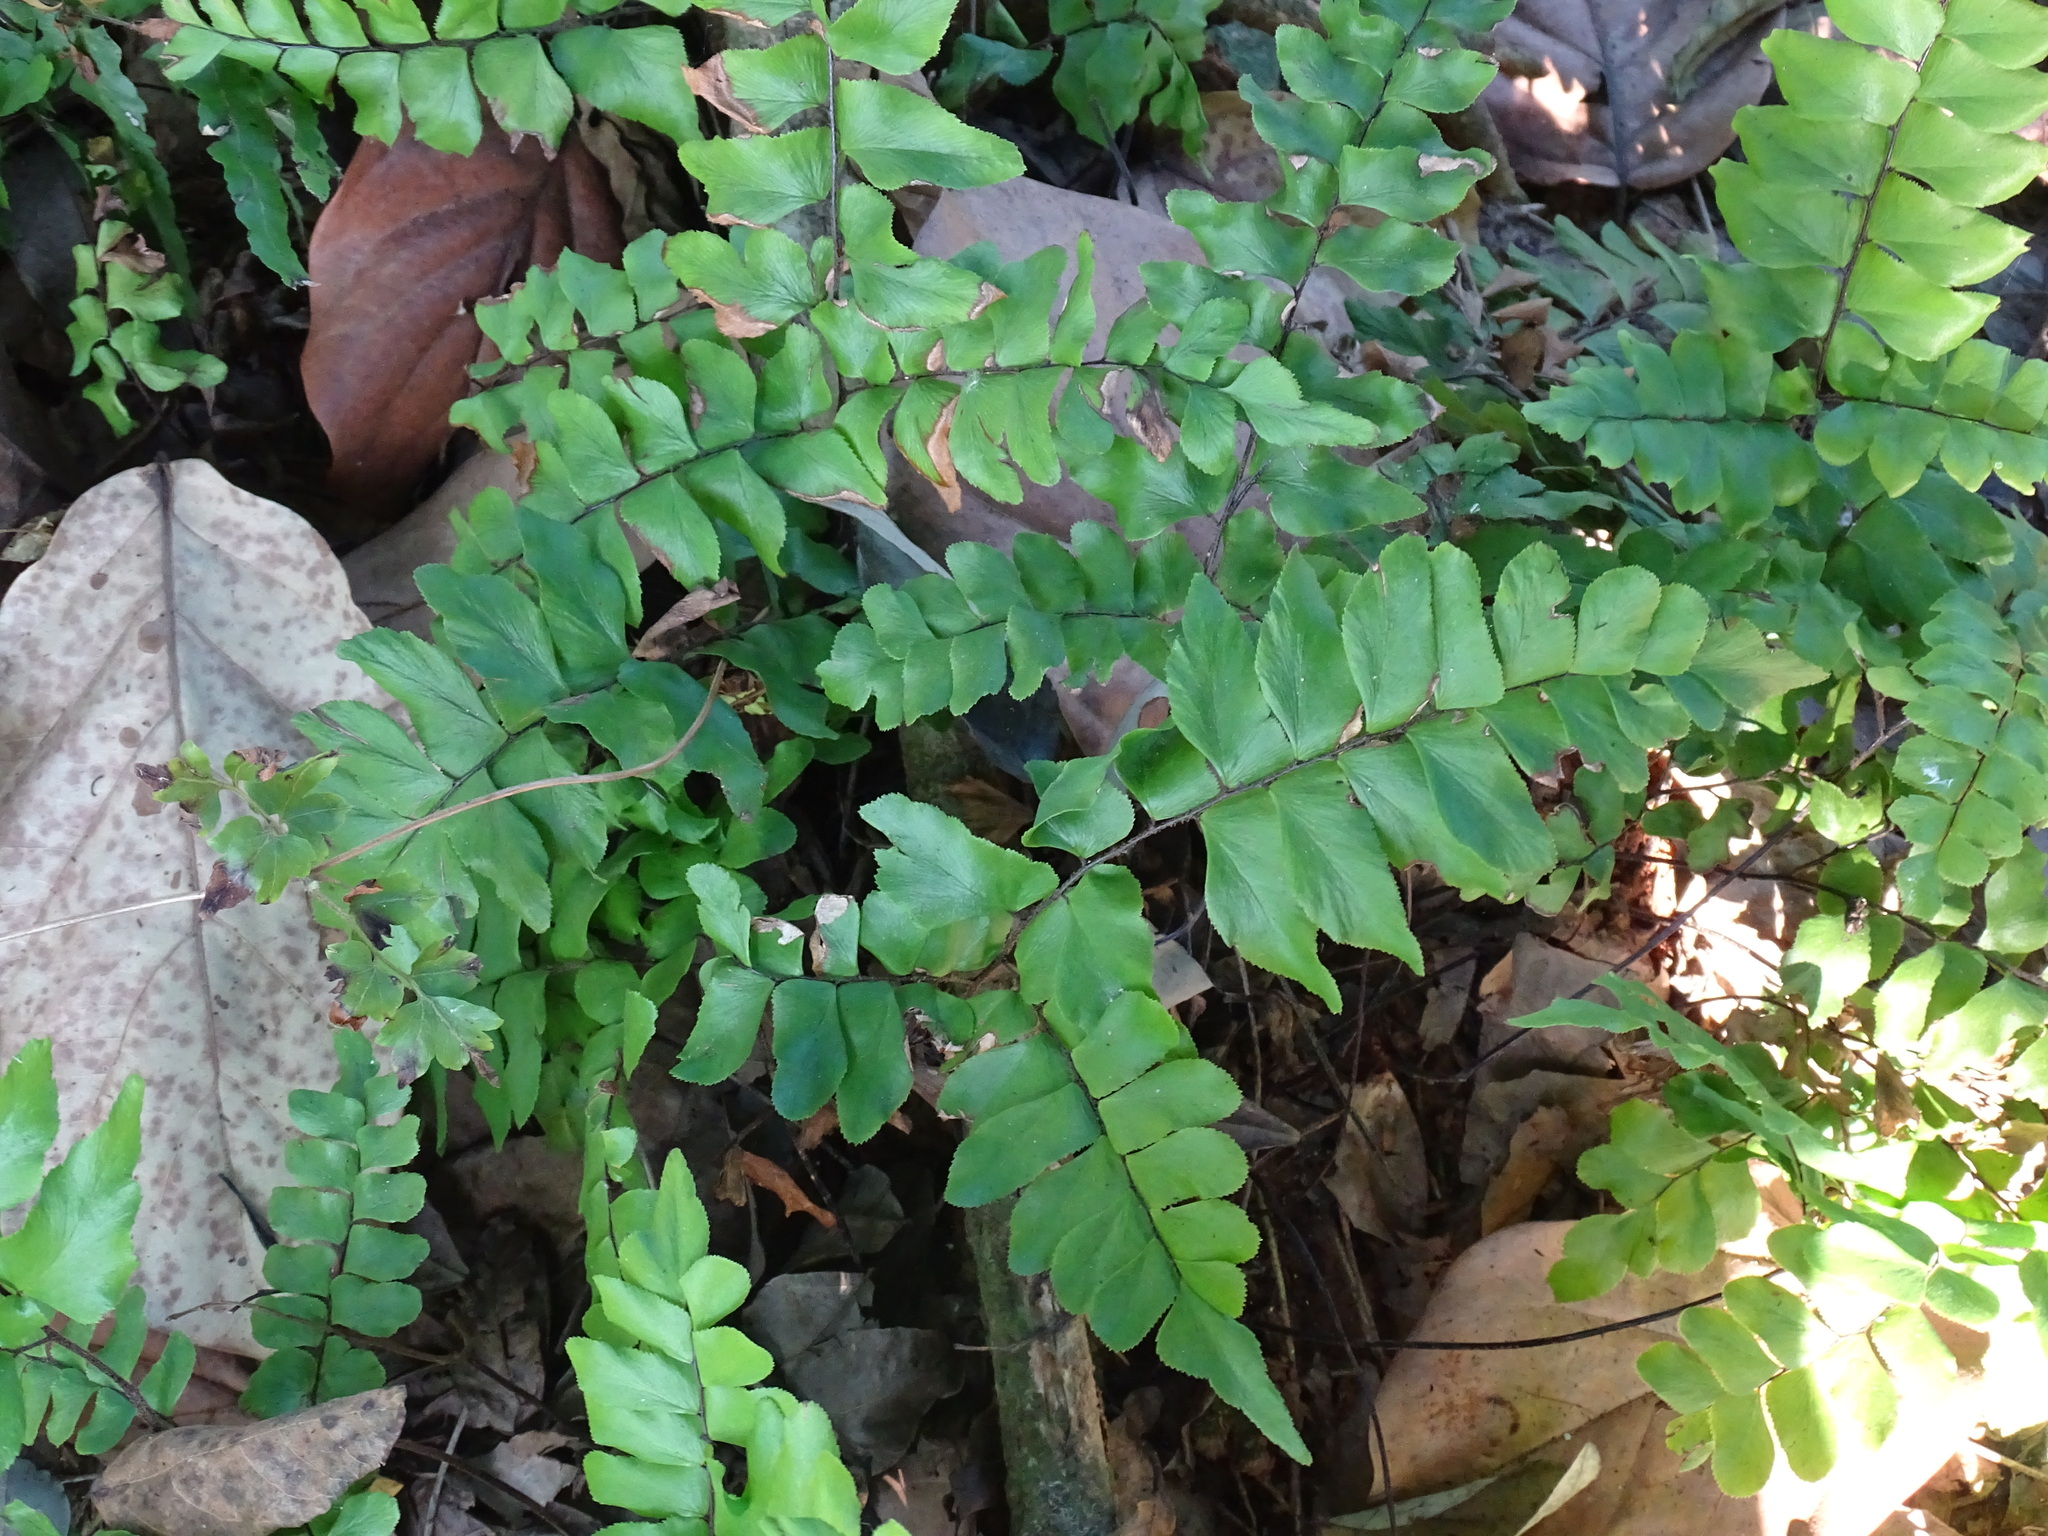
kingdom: Plantae
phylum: Tracheophyta
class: Polypodiopsida
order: Polypodiales
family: Pteridaceae
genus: Adiantum
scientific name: Adiantum mcvaughii
